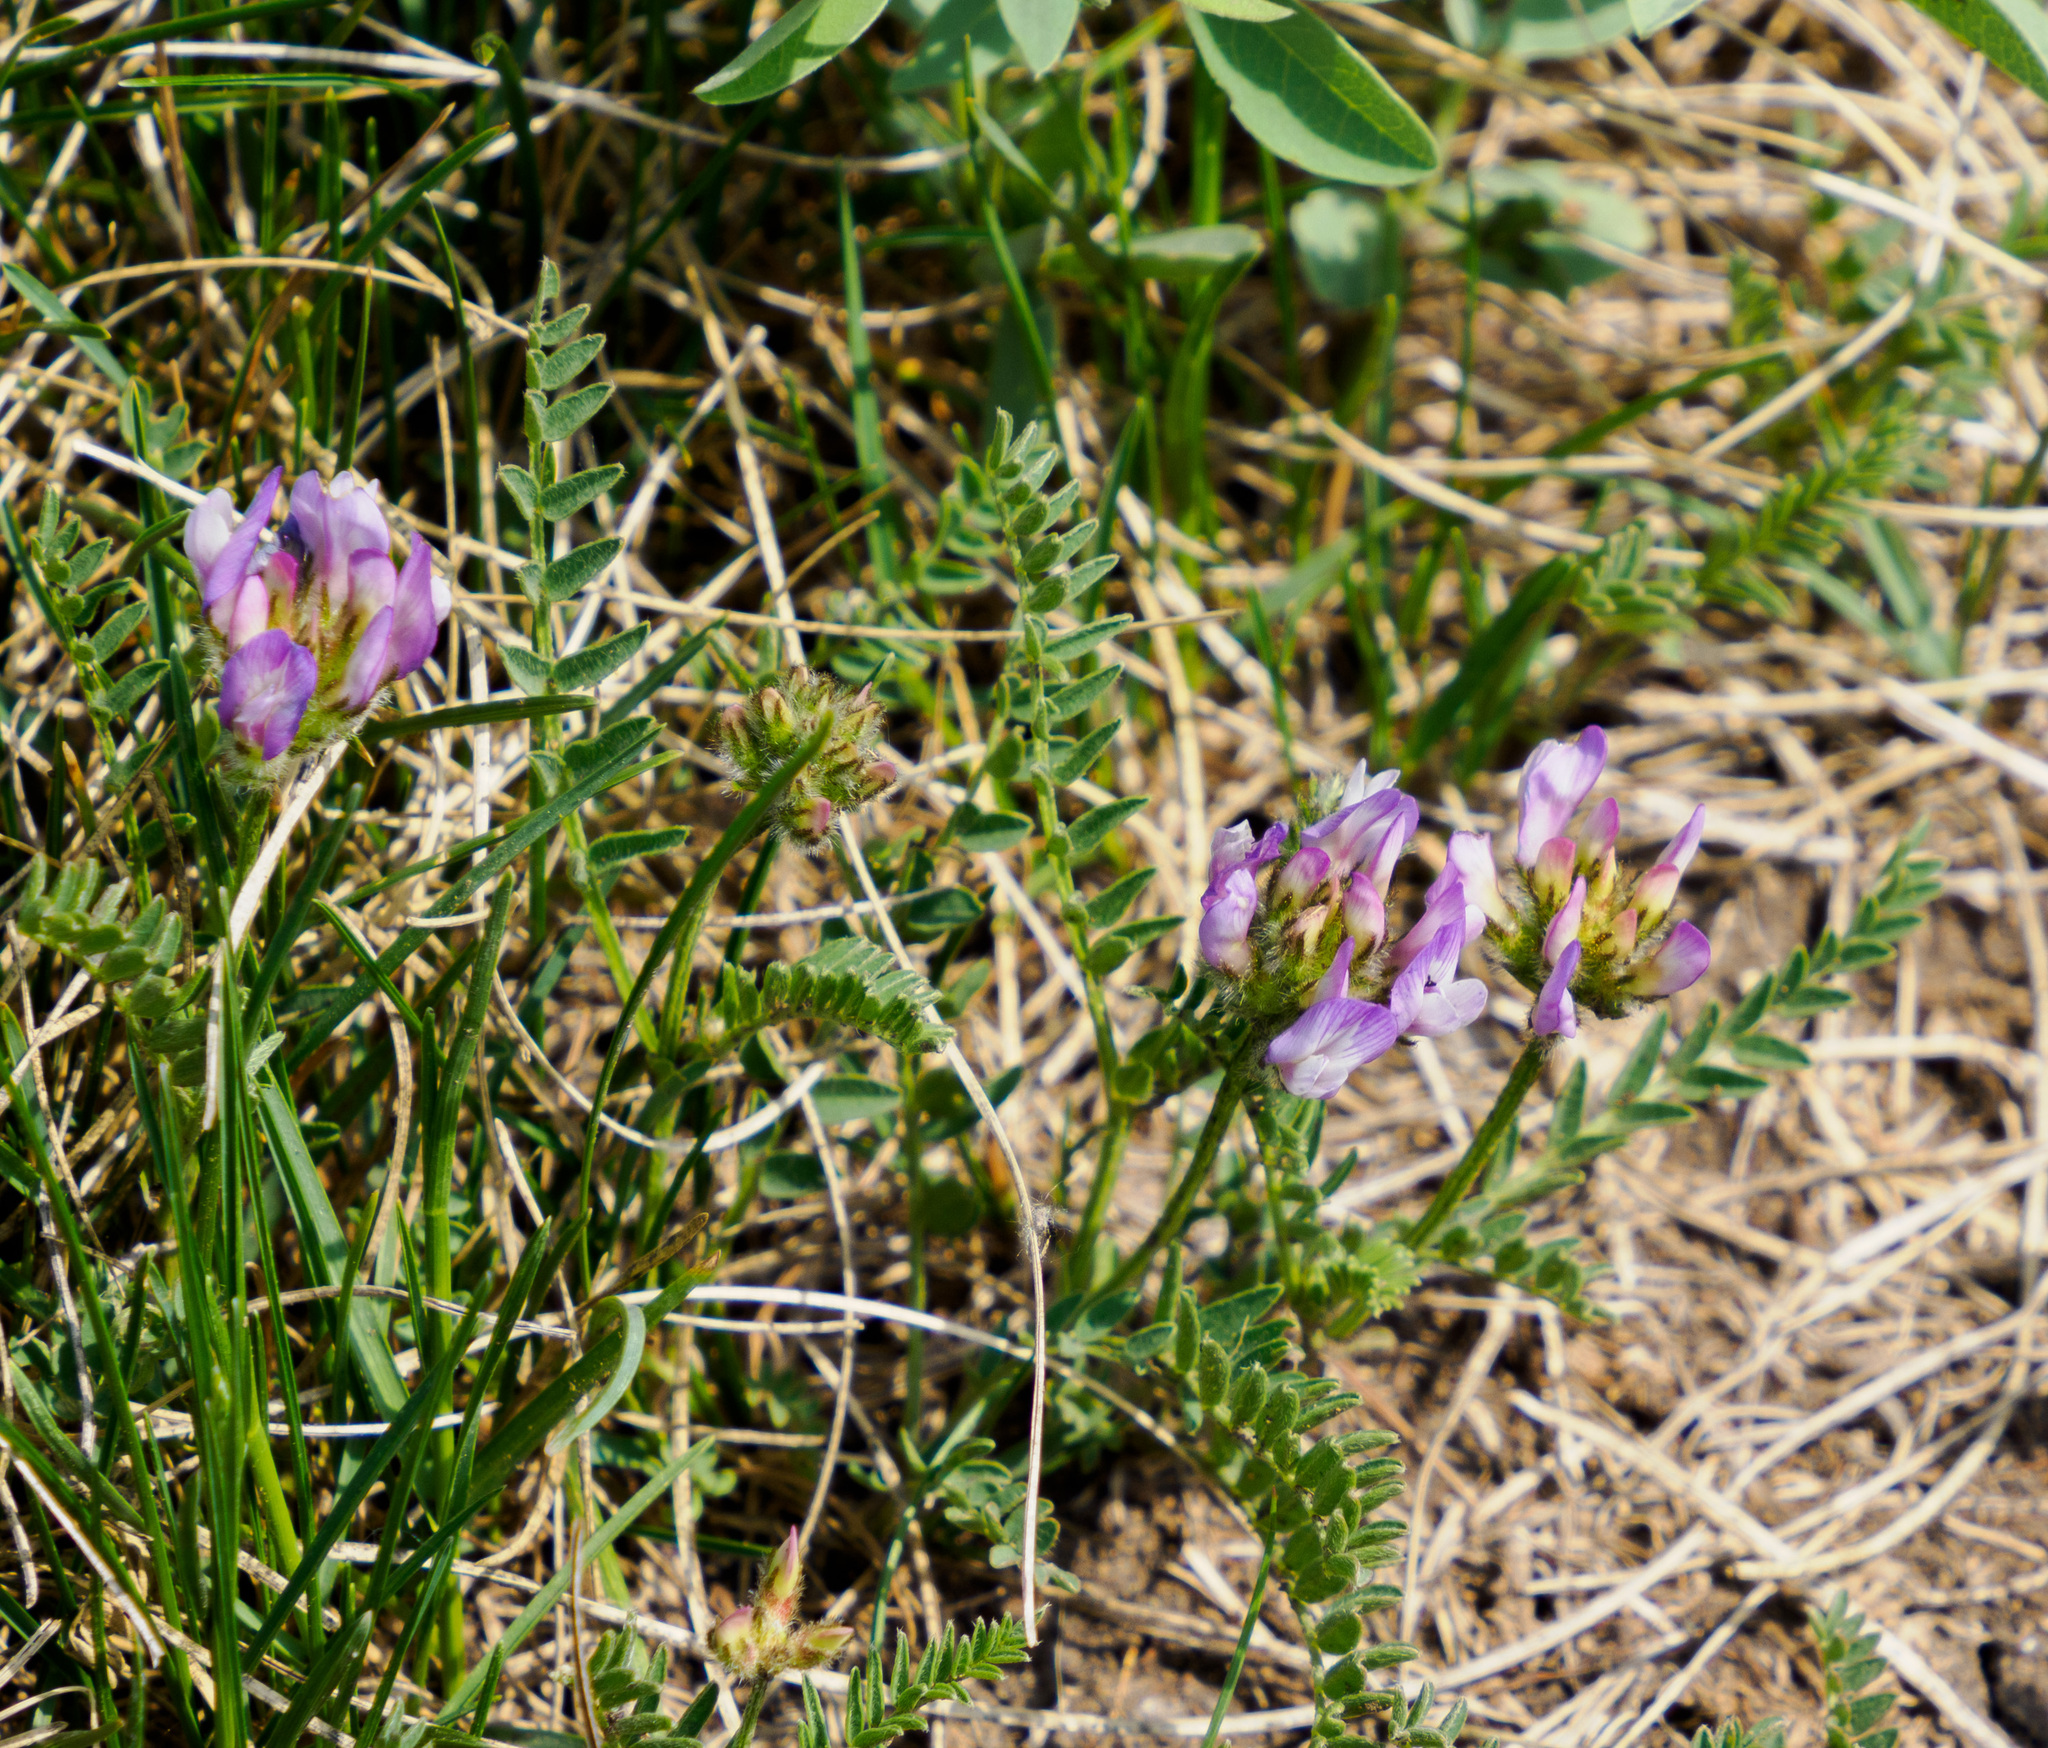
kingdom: Plantae
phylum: Tracheophyta
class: Magnoliopsida
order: Fabales
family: Fabaceae
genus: Astragalus
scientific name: Astragalus agrestis
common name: Field milk-vetch
